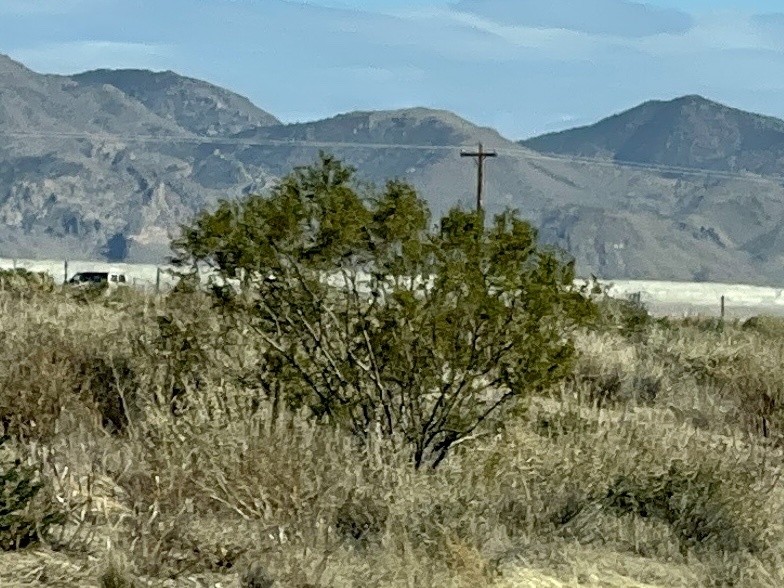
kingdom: Plantae
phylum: Tracheophyta
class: Magnoliopsida
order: Zygophyllales
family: Zygophyllaceae
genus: Larrea
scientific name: Larrea tridentata
